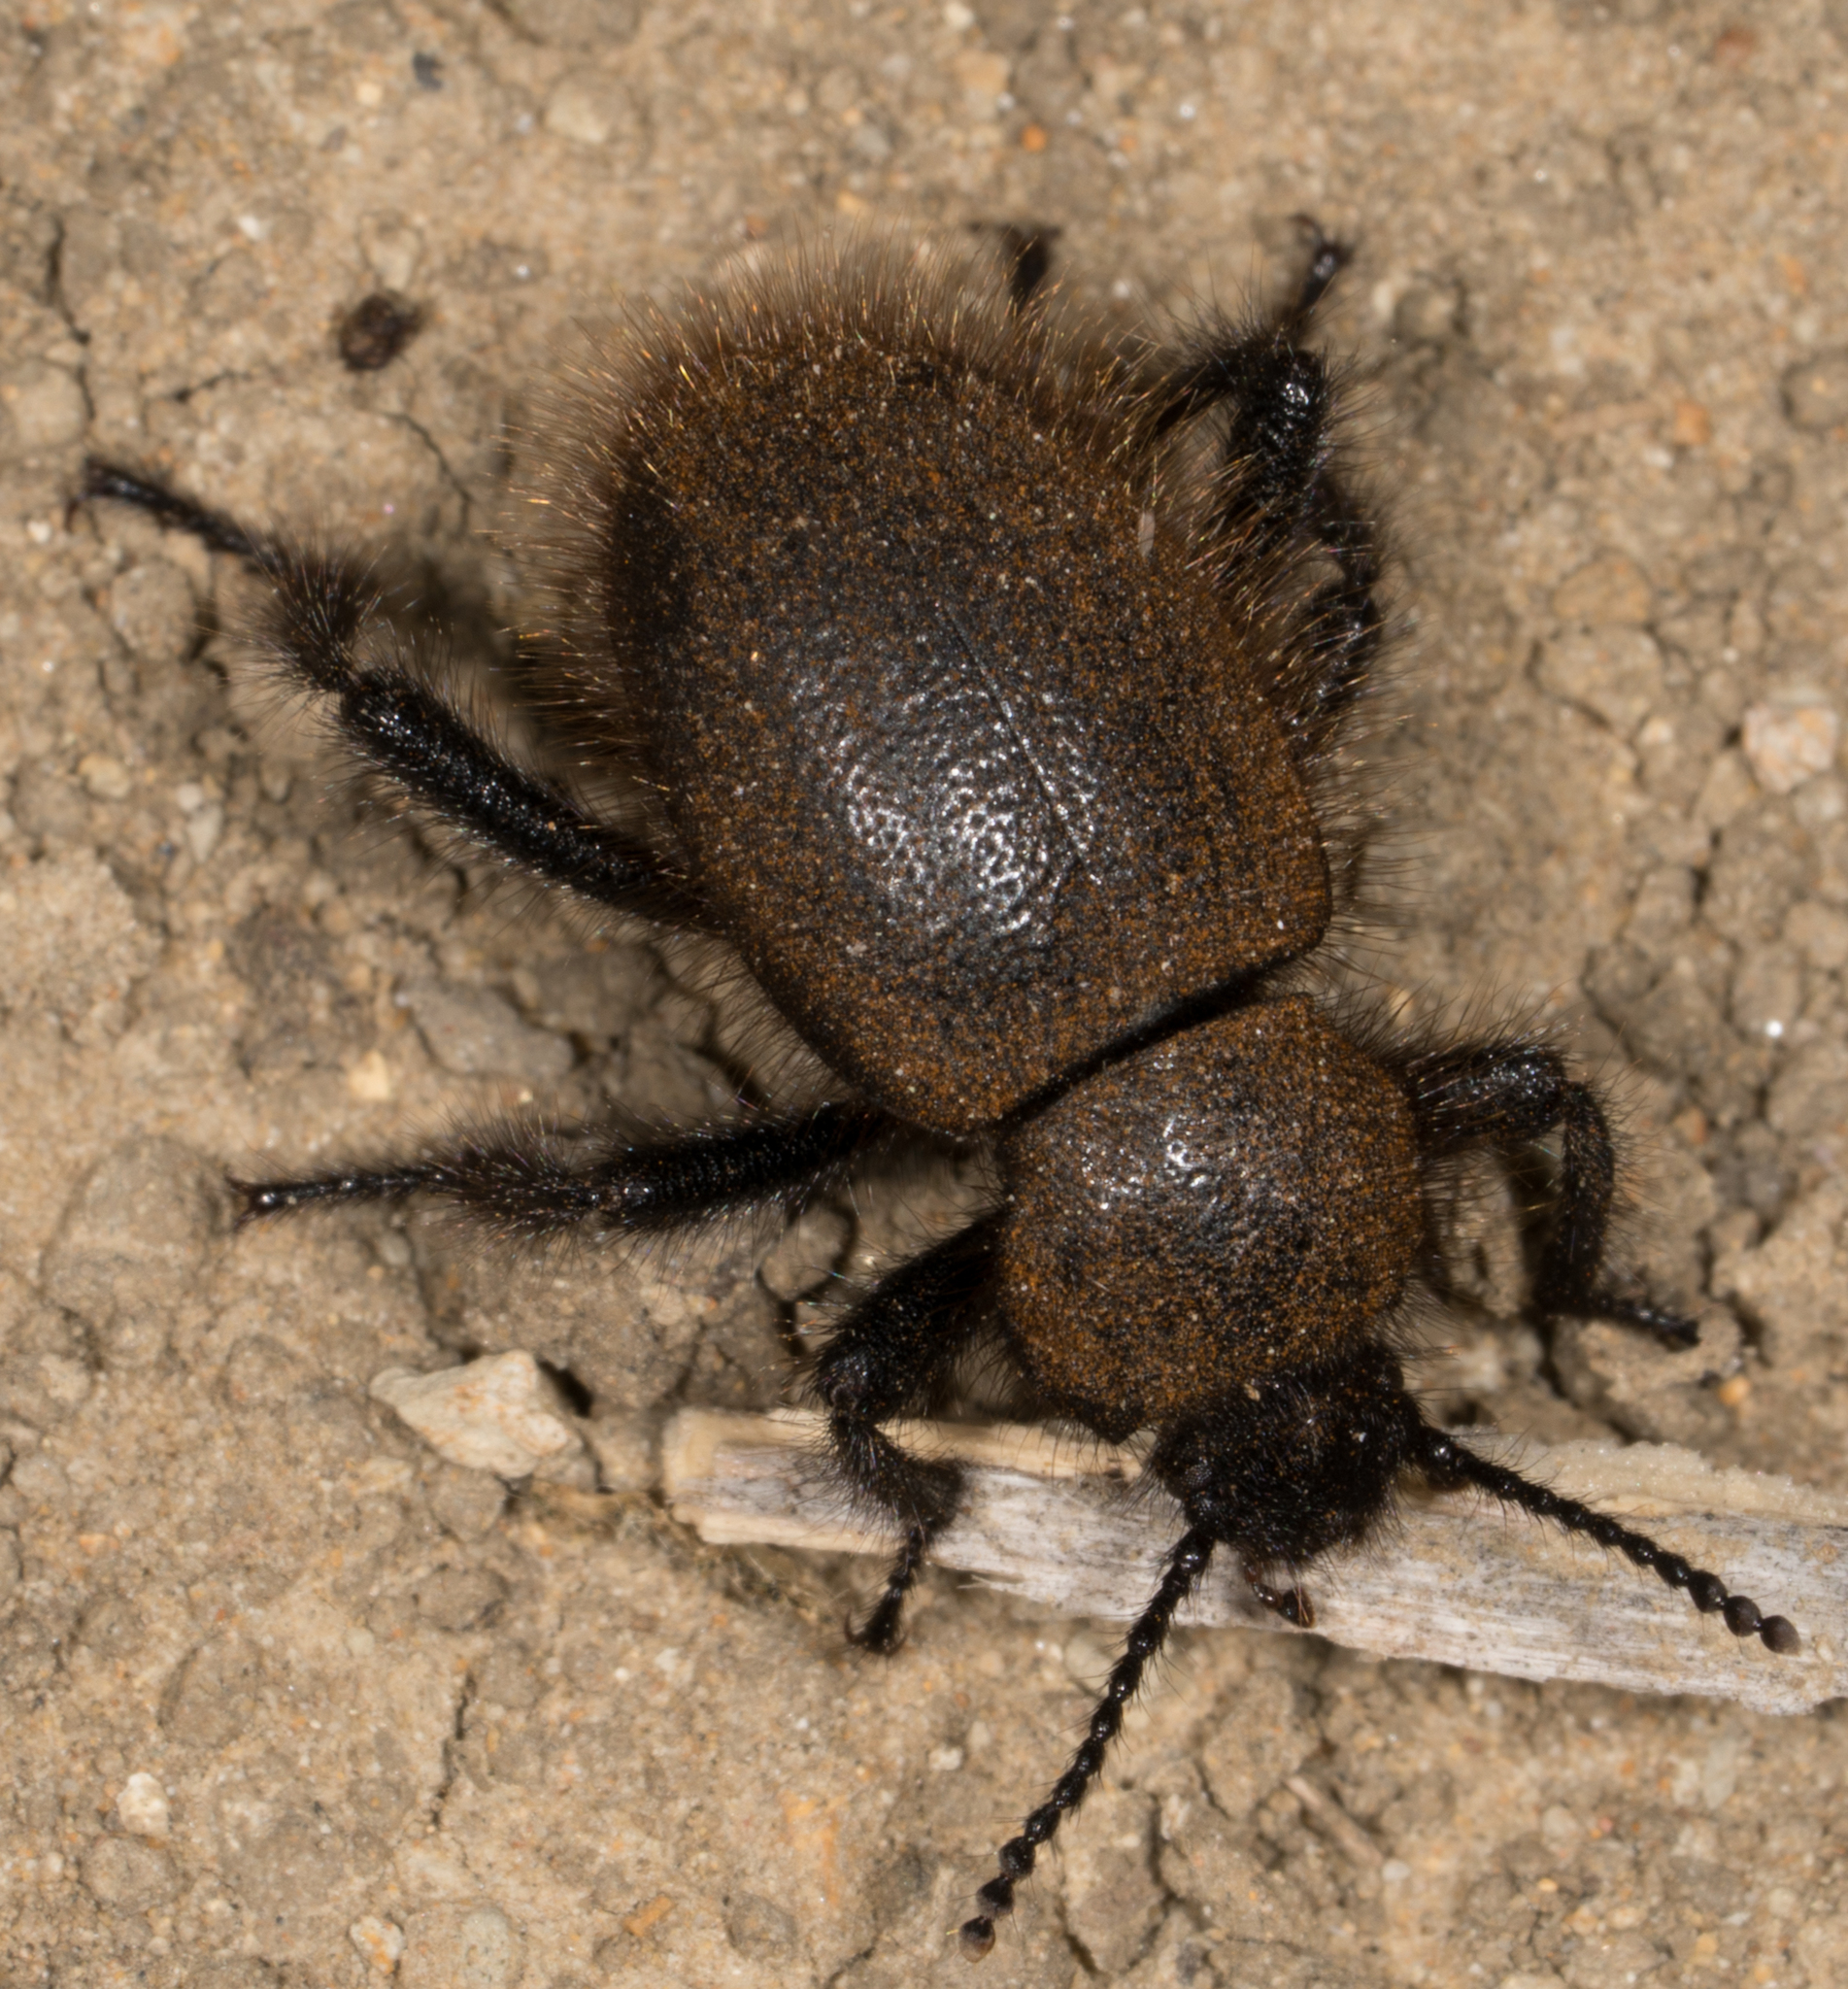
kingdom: Animalia
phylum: Arthropoda
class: Insecta
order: Coleoptera
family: Tenebrionidae
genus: Eleodes
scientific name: Eleodes osculans
